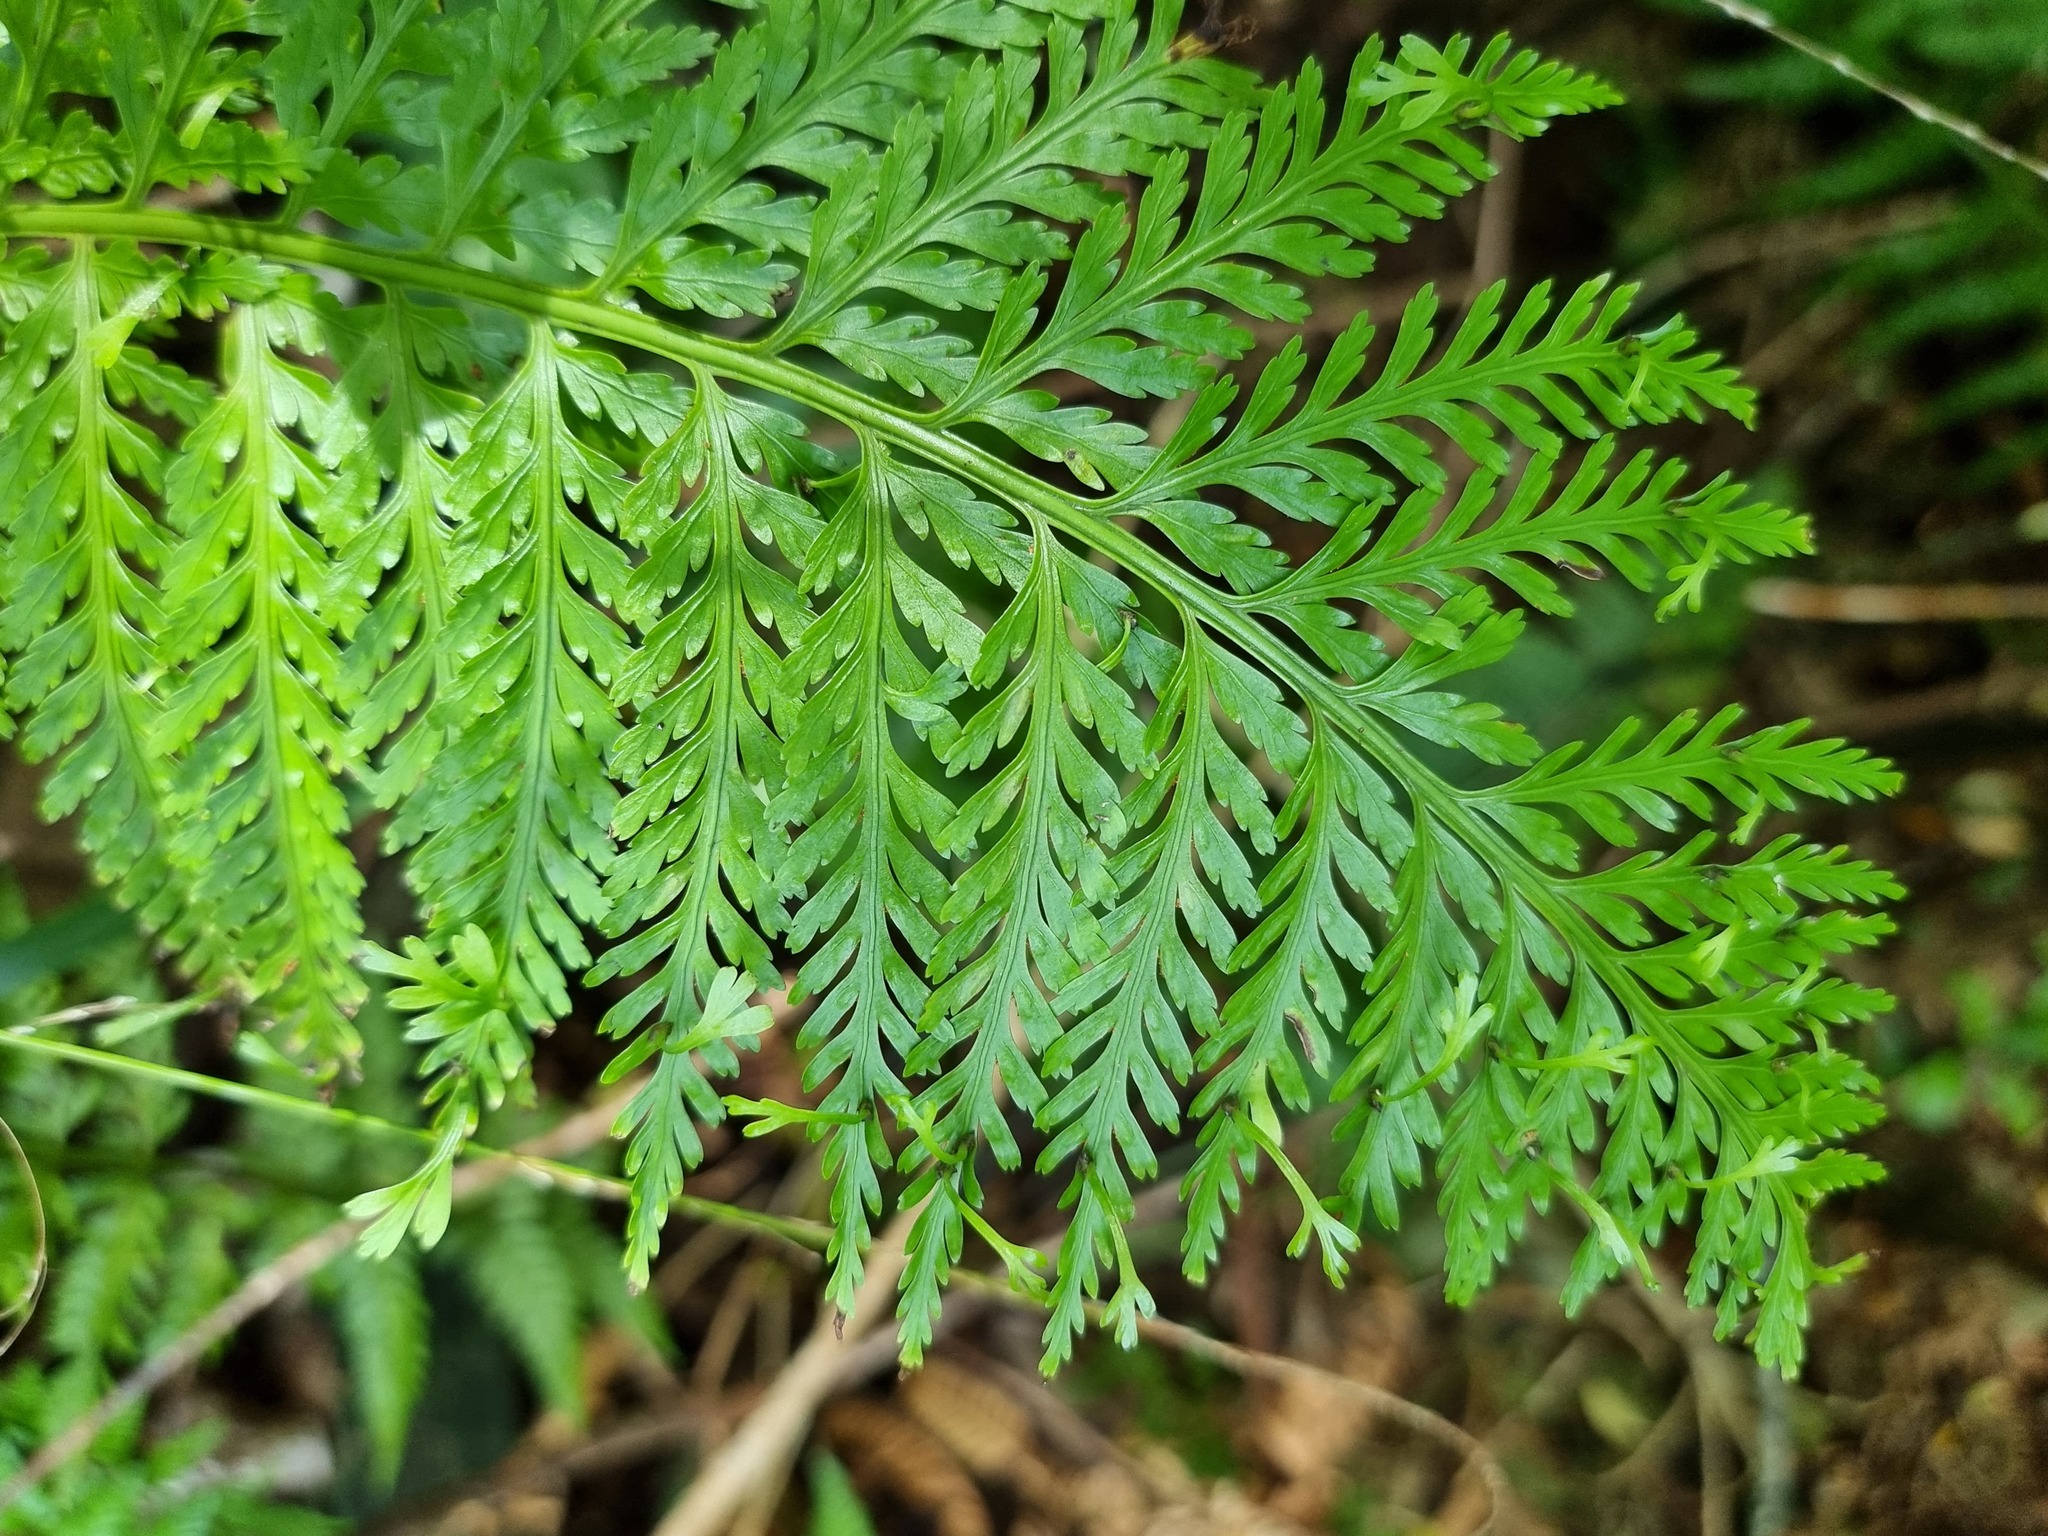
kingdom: Plantae
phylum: Tracheophyta
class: Polypodiopsida
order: Polypodiales
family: Aspleniaceae
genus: Asplenium
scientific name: Asplenium bulbiferum
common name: Mother fern
